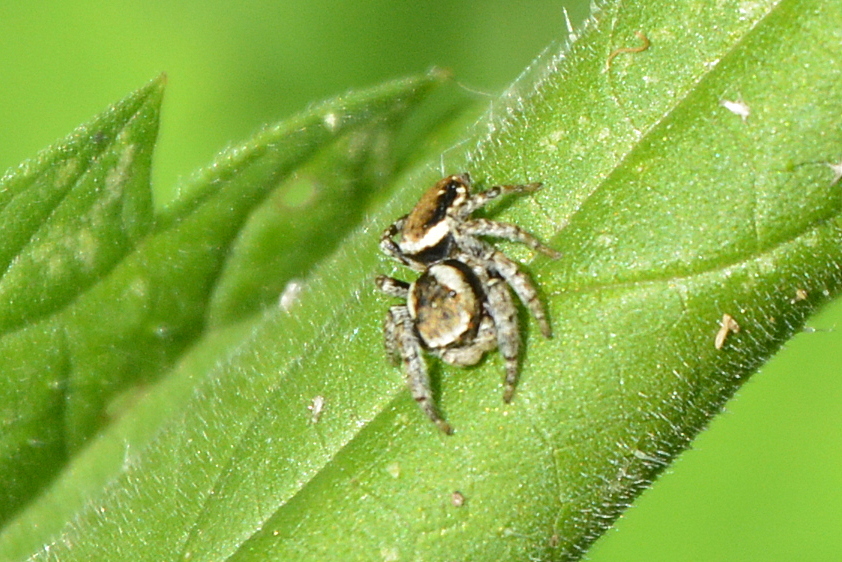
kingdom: Animalia
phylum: Arthropoda
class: Arachnida
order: Araneae
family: Salticidae
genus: Evarcha
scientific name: Evarcha falcata
